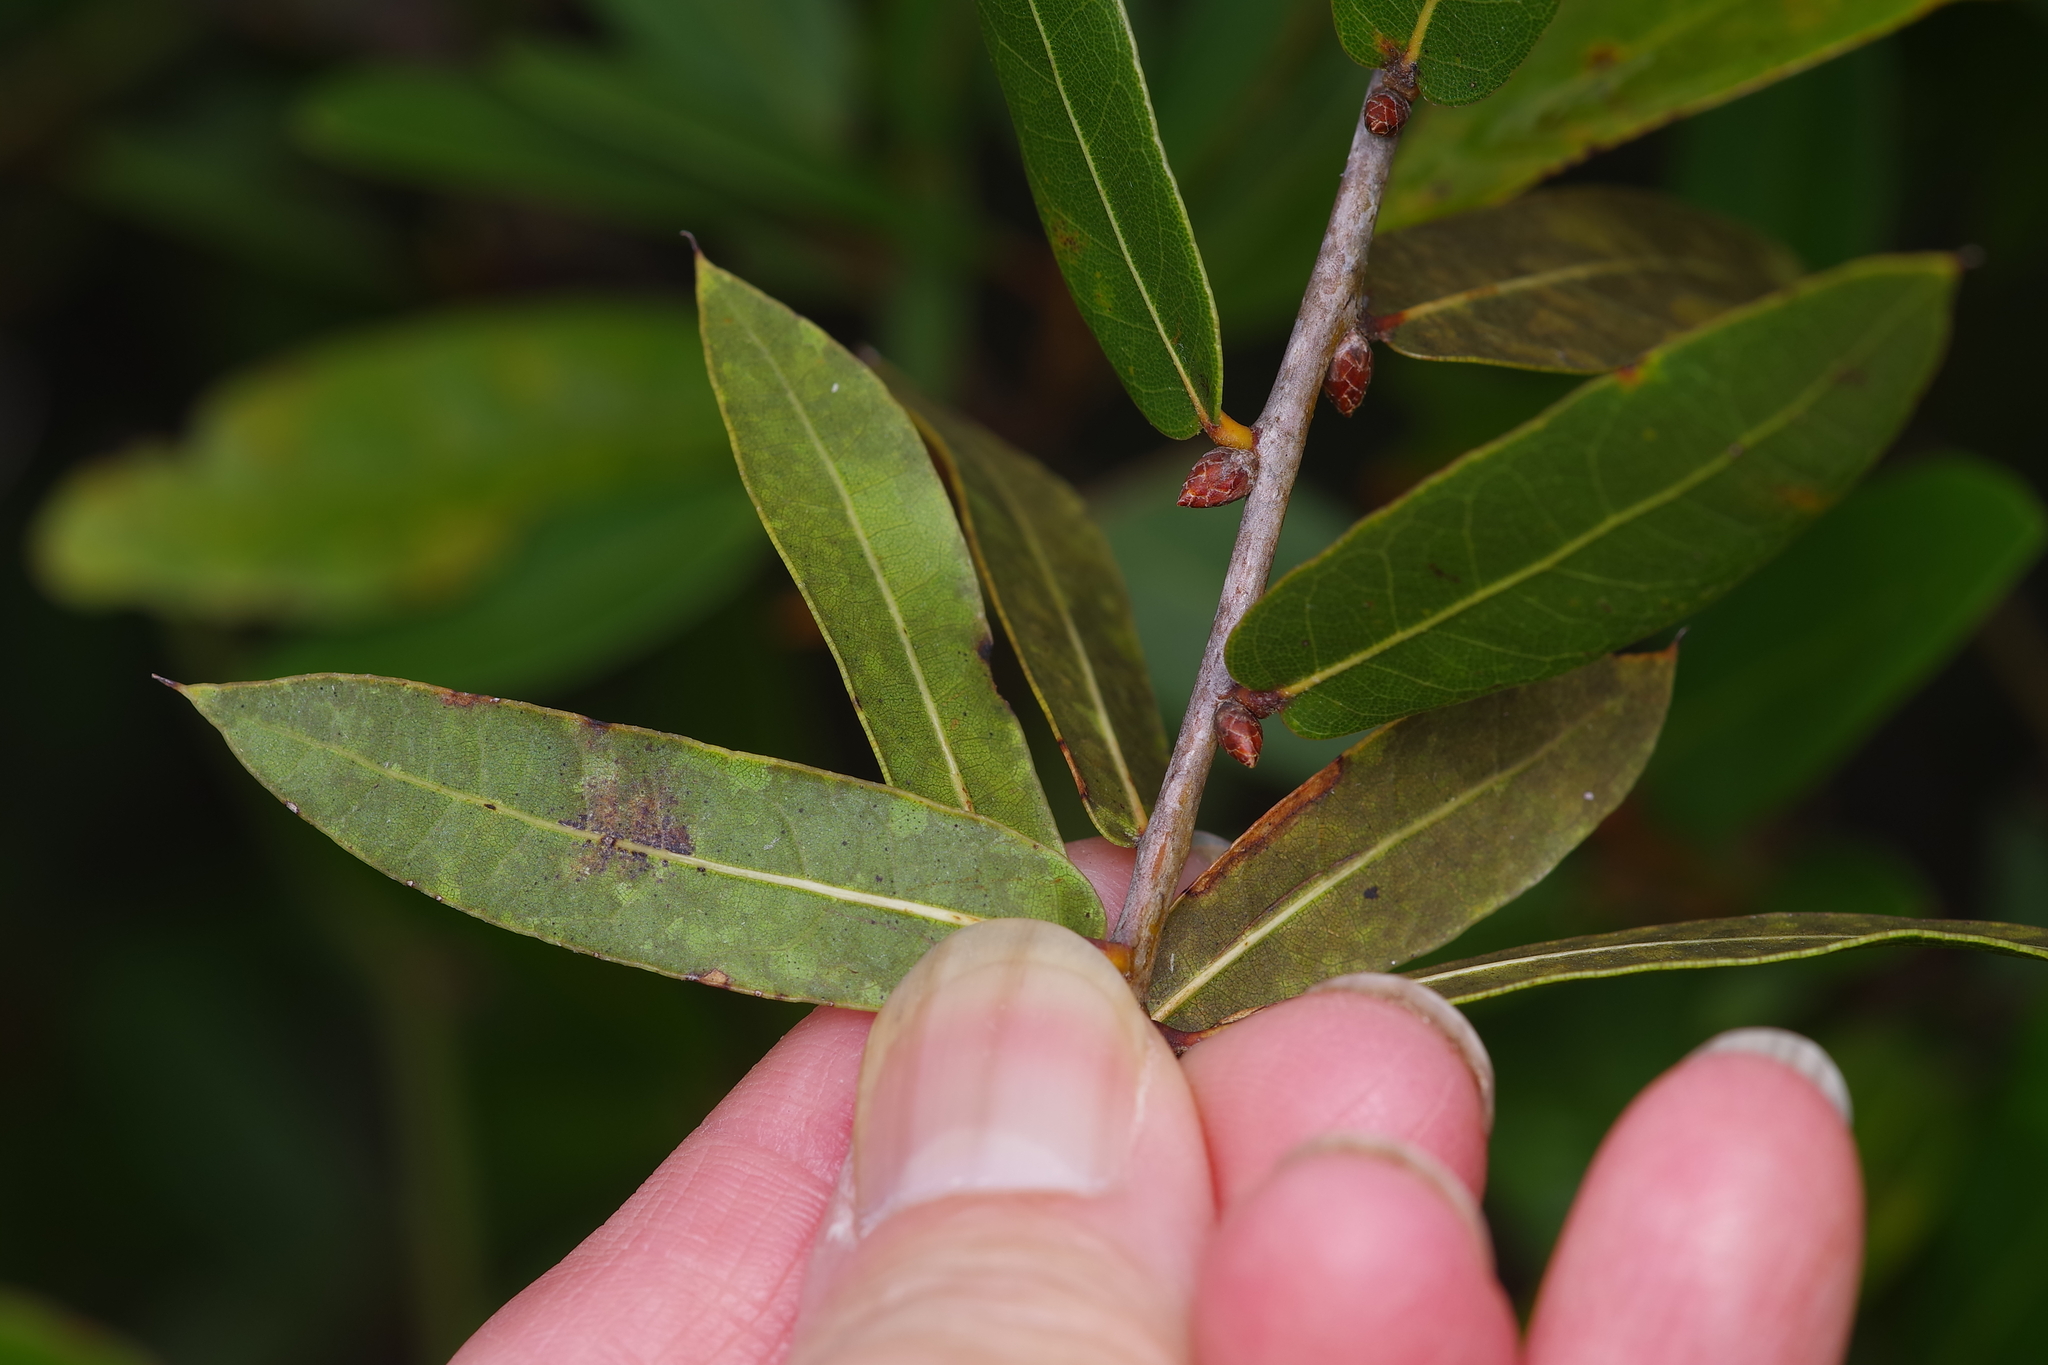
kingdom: Plantae
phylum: Tracheophyta
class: Magnoliopsida
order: Fagales
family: Fagaceae
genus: Quercus
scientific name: Quercus hemisphaerica
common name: Darlington oak
